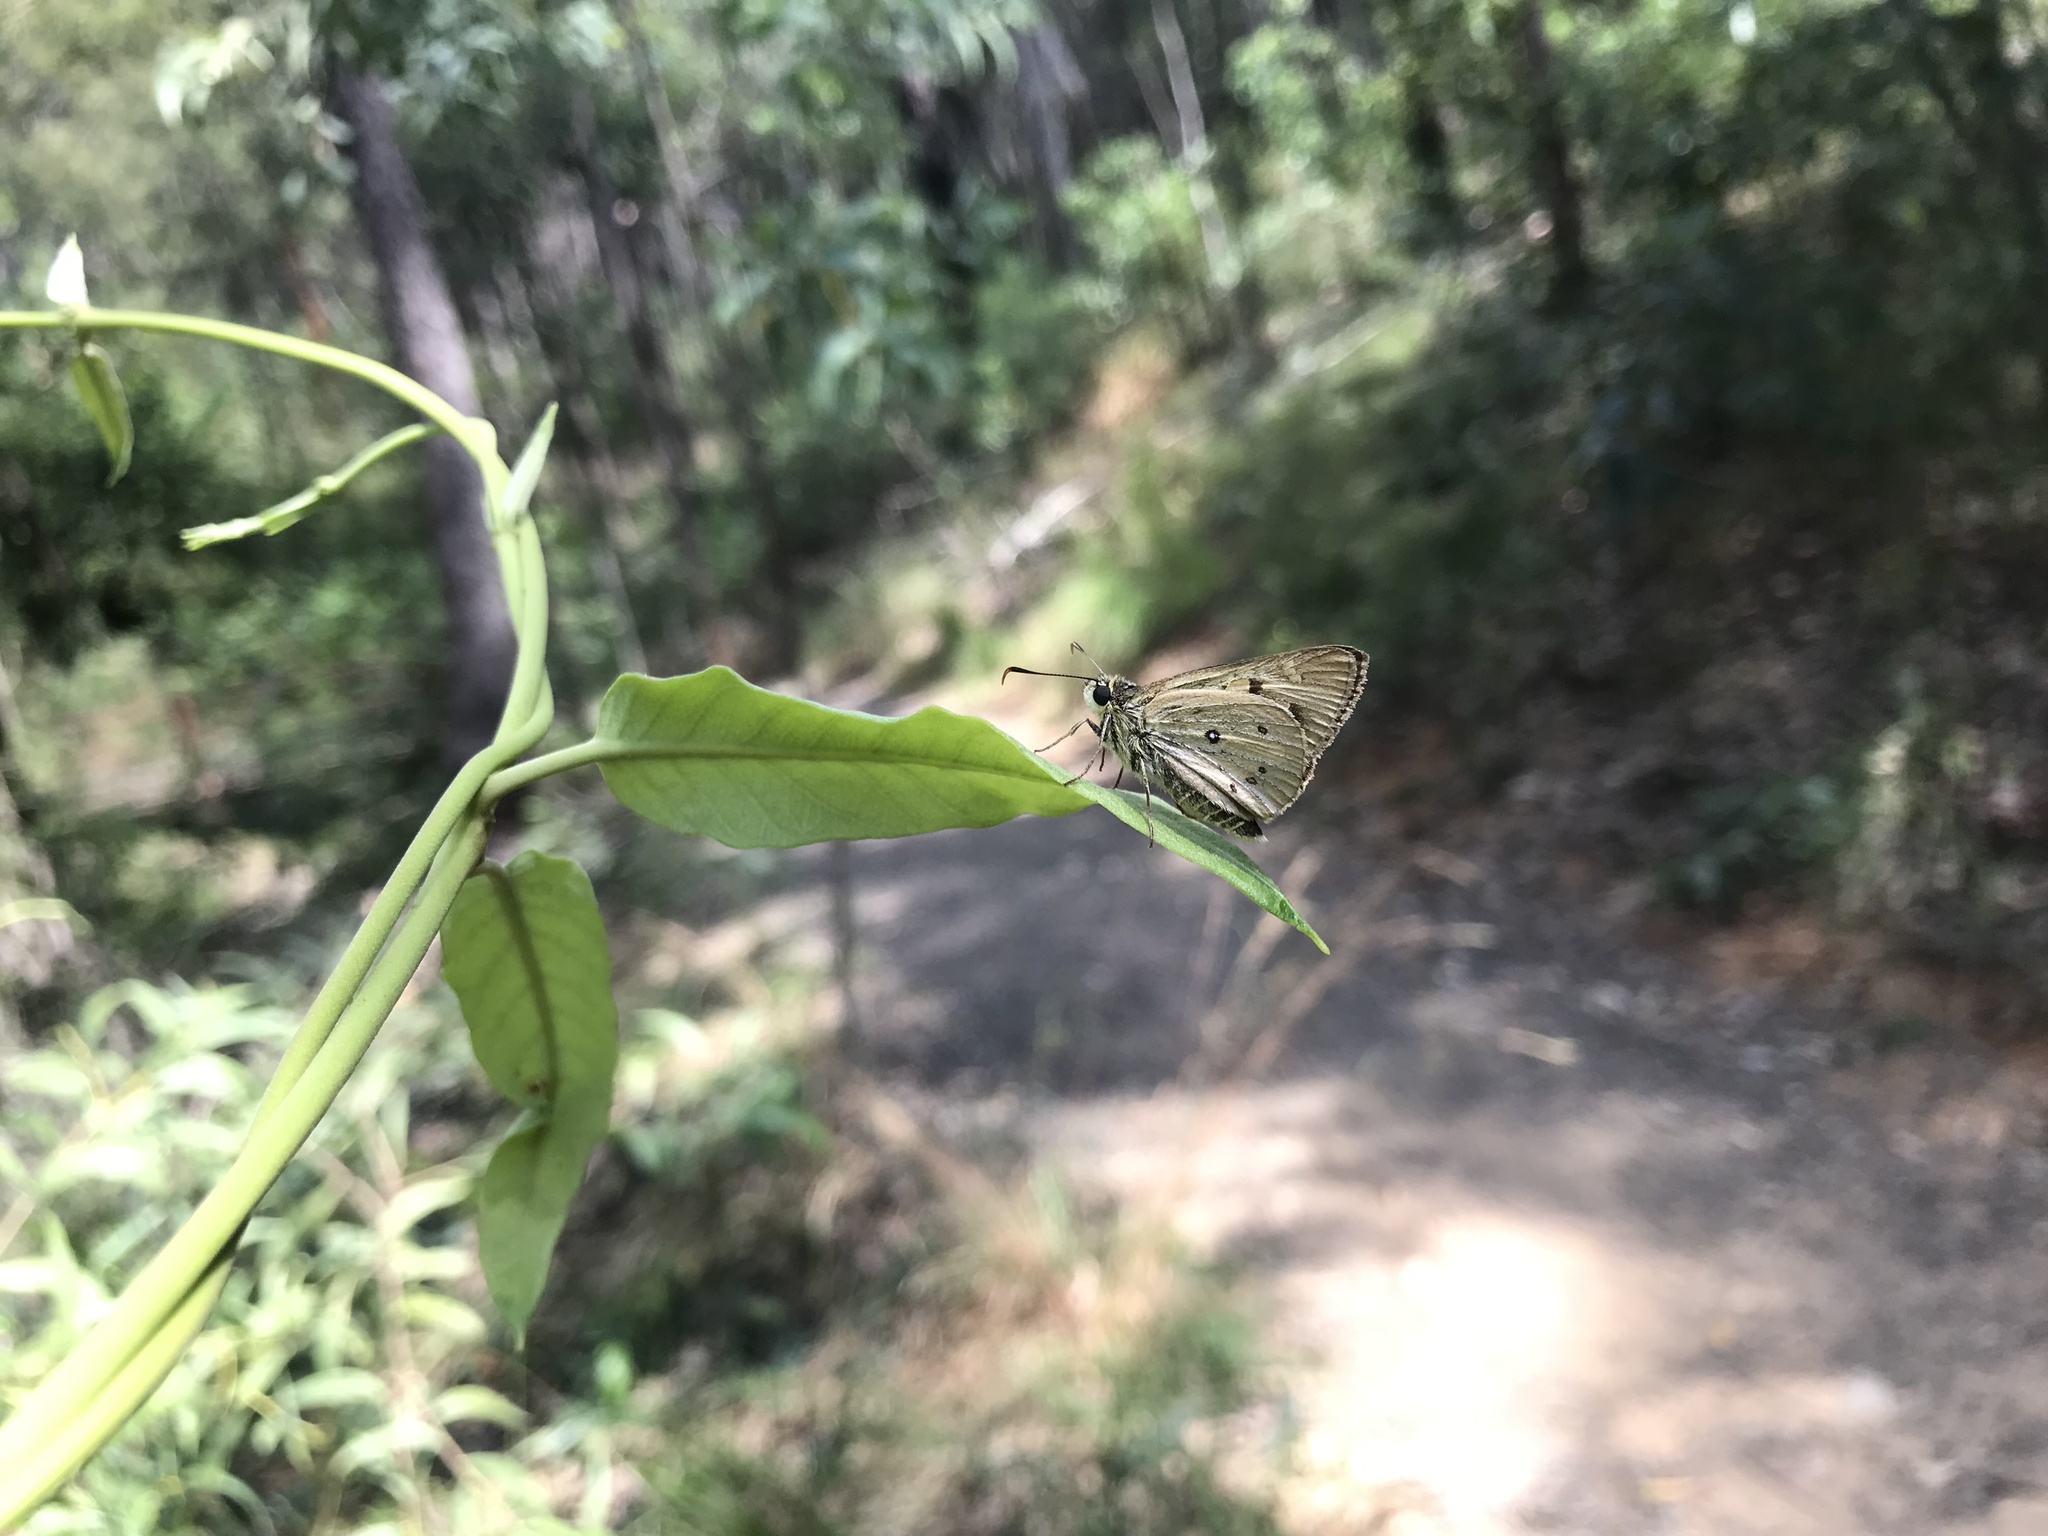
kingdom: Animalia
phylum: Arthropoda
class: Insecta
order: Lepidoptera
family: Hesperiidae
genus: Trapezites
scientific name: Trapezites eliena
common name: Eliena skipper
